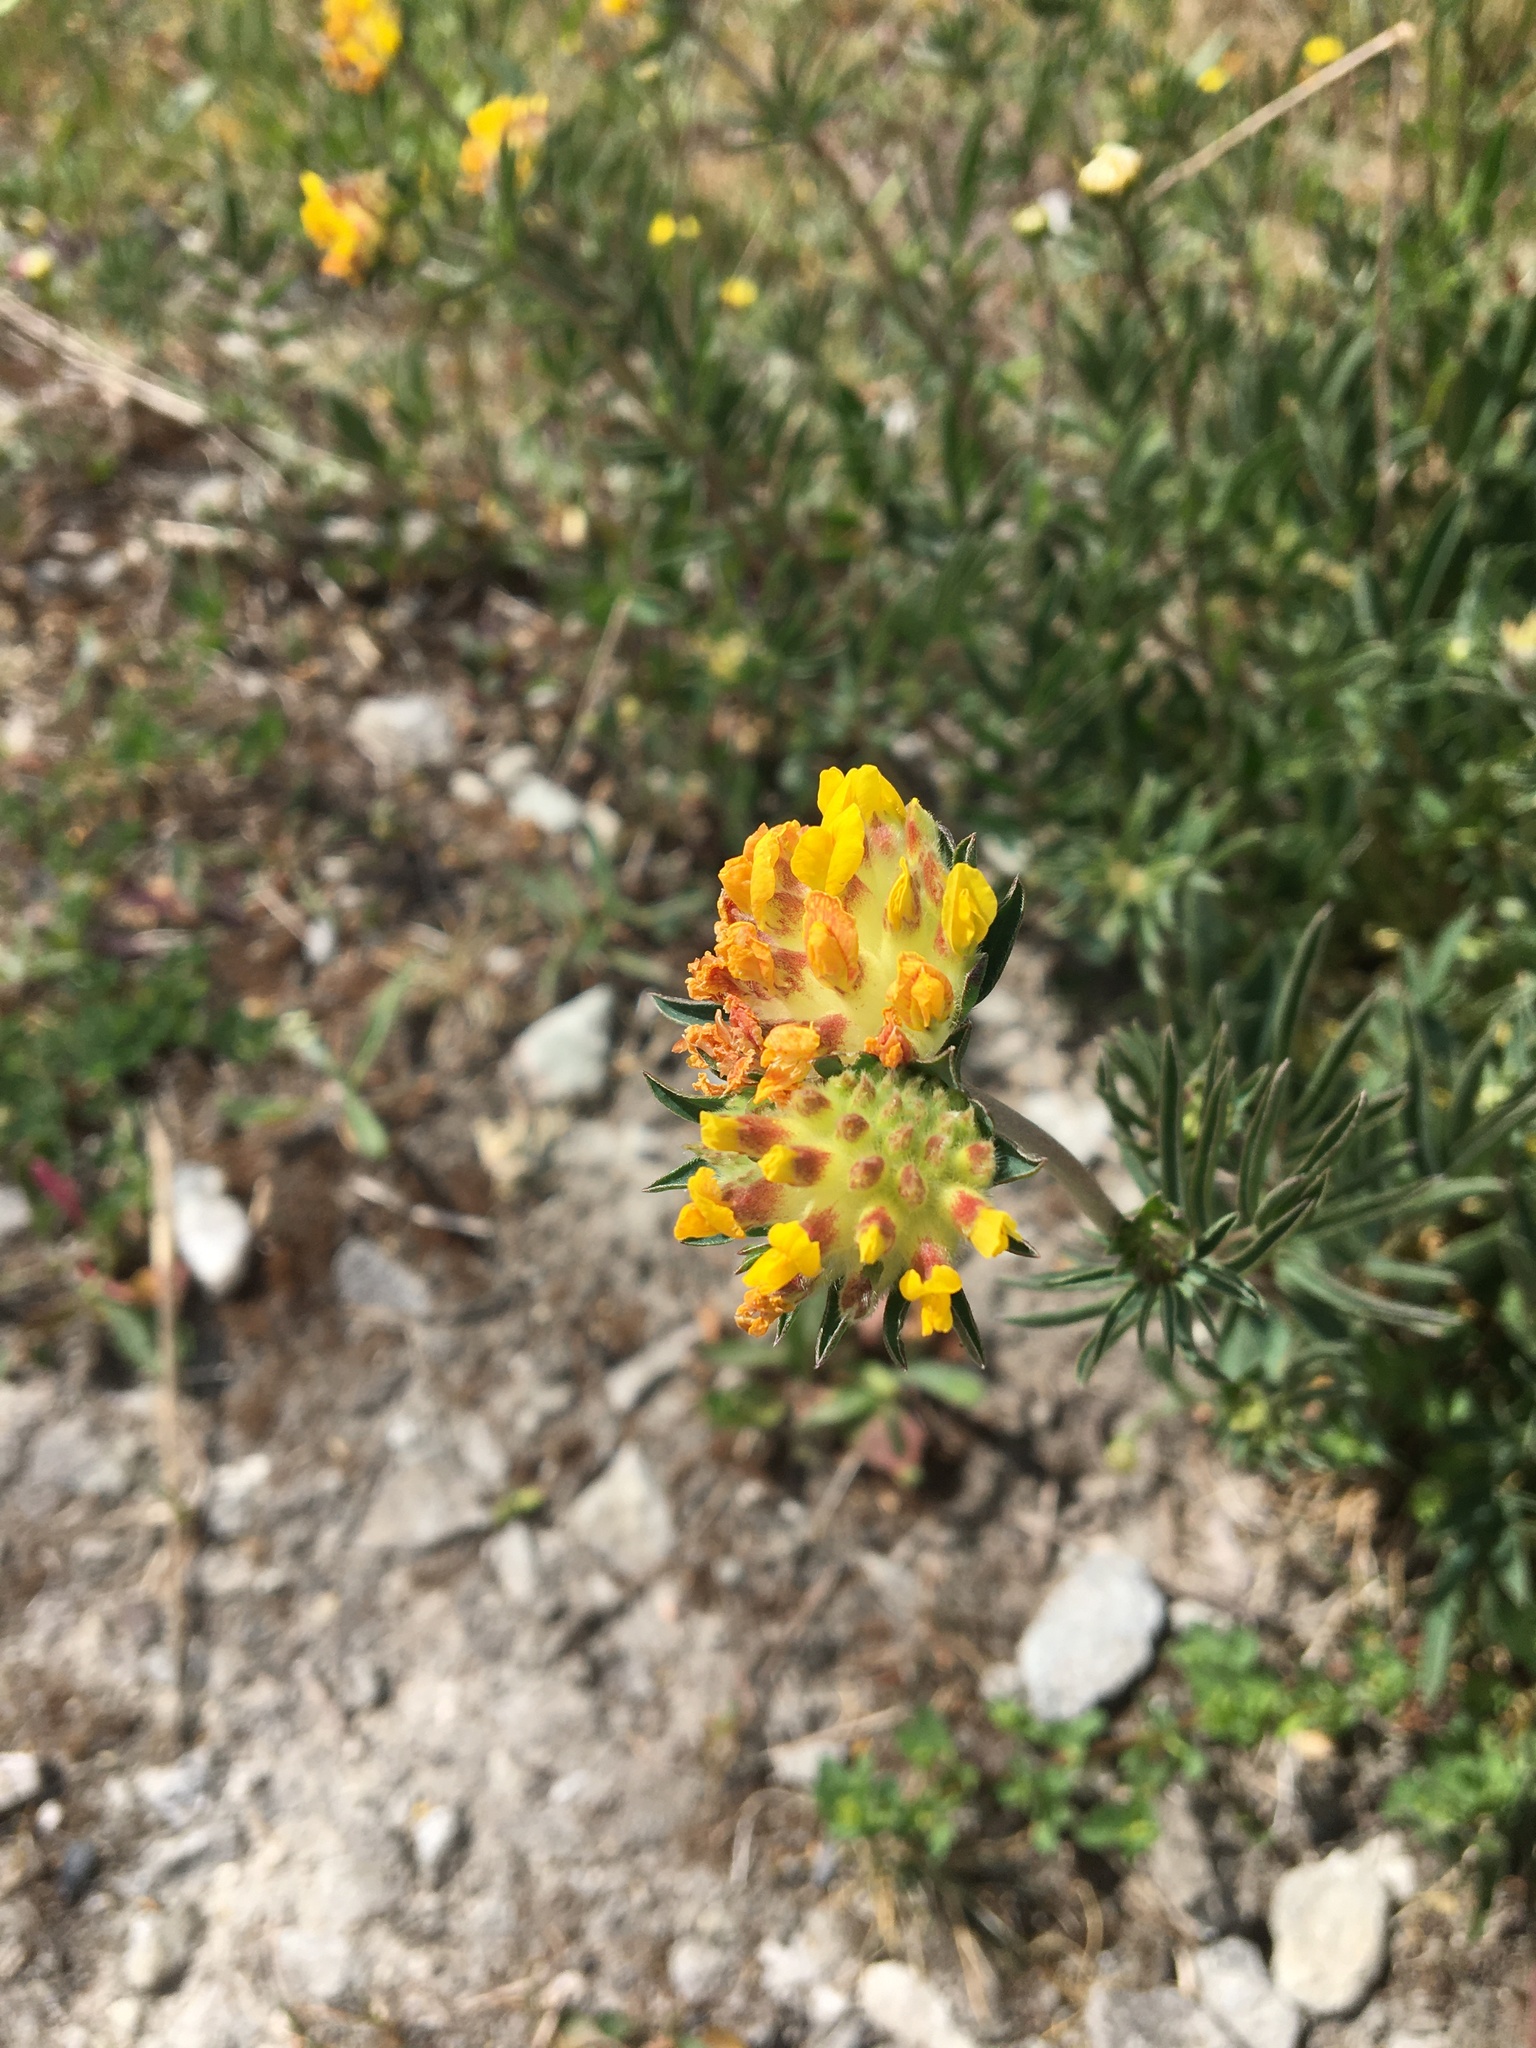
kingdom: Plantae
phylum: Tracheophyta
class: Magnoliopsida
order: Fabales
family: Fabaceae
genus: Anthyllis
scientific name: Anthyllis vulneraria
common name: Kidney vetch
